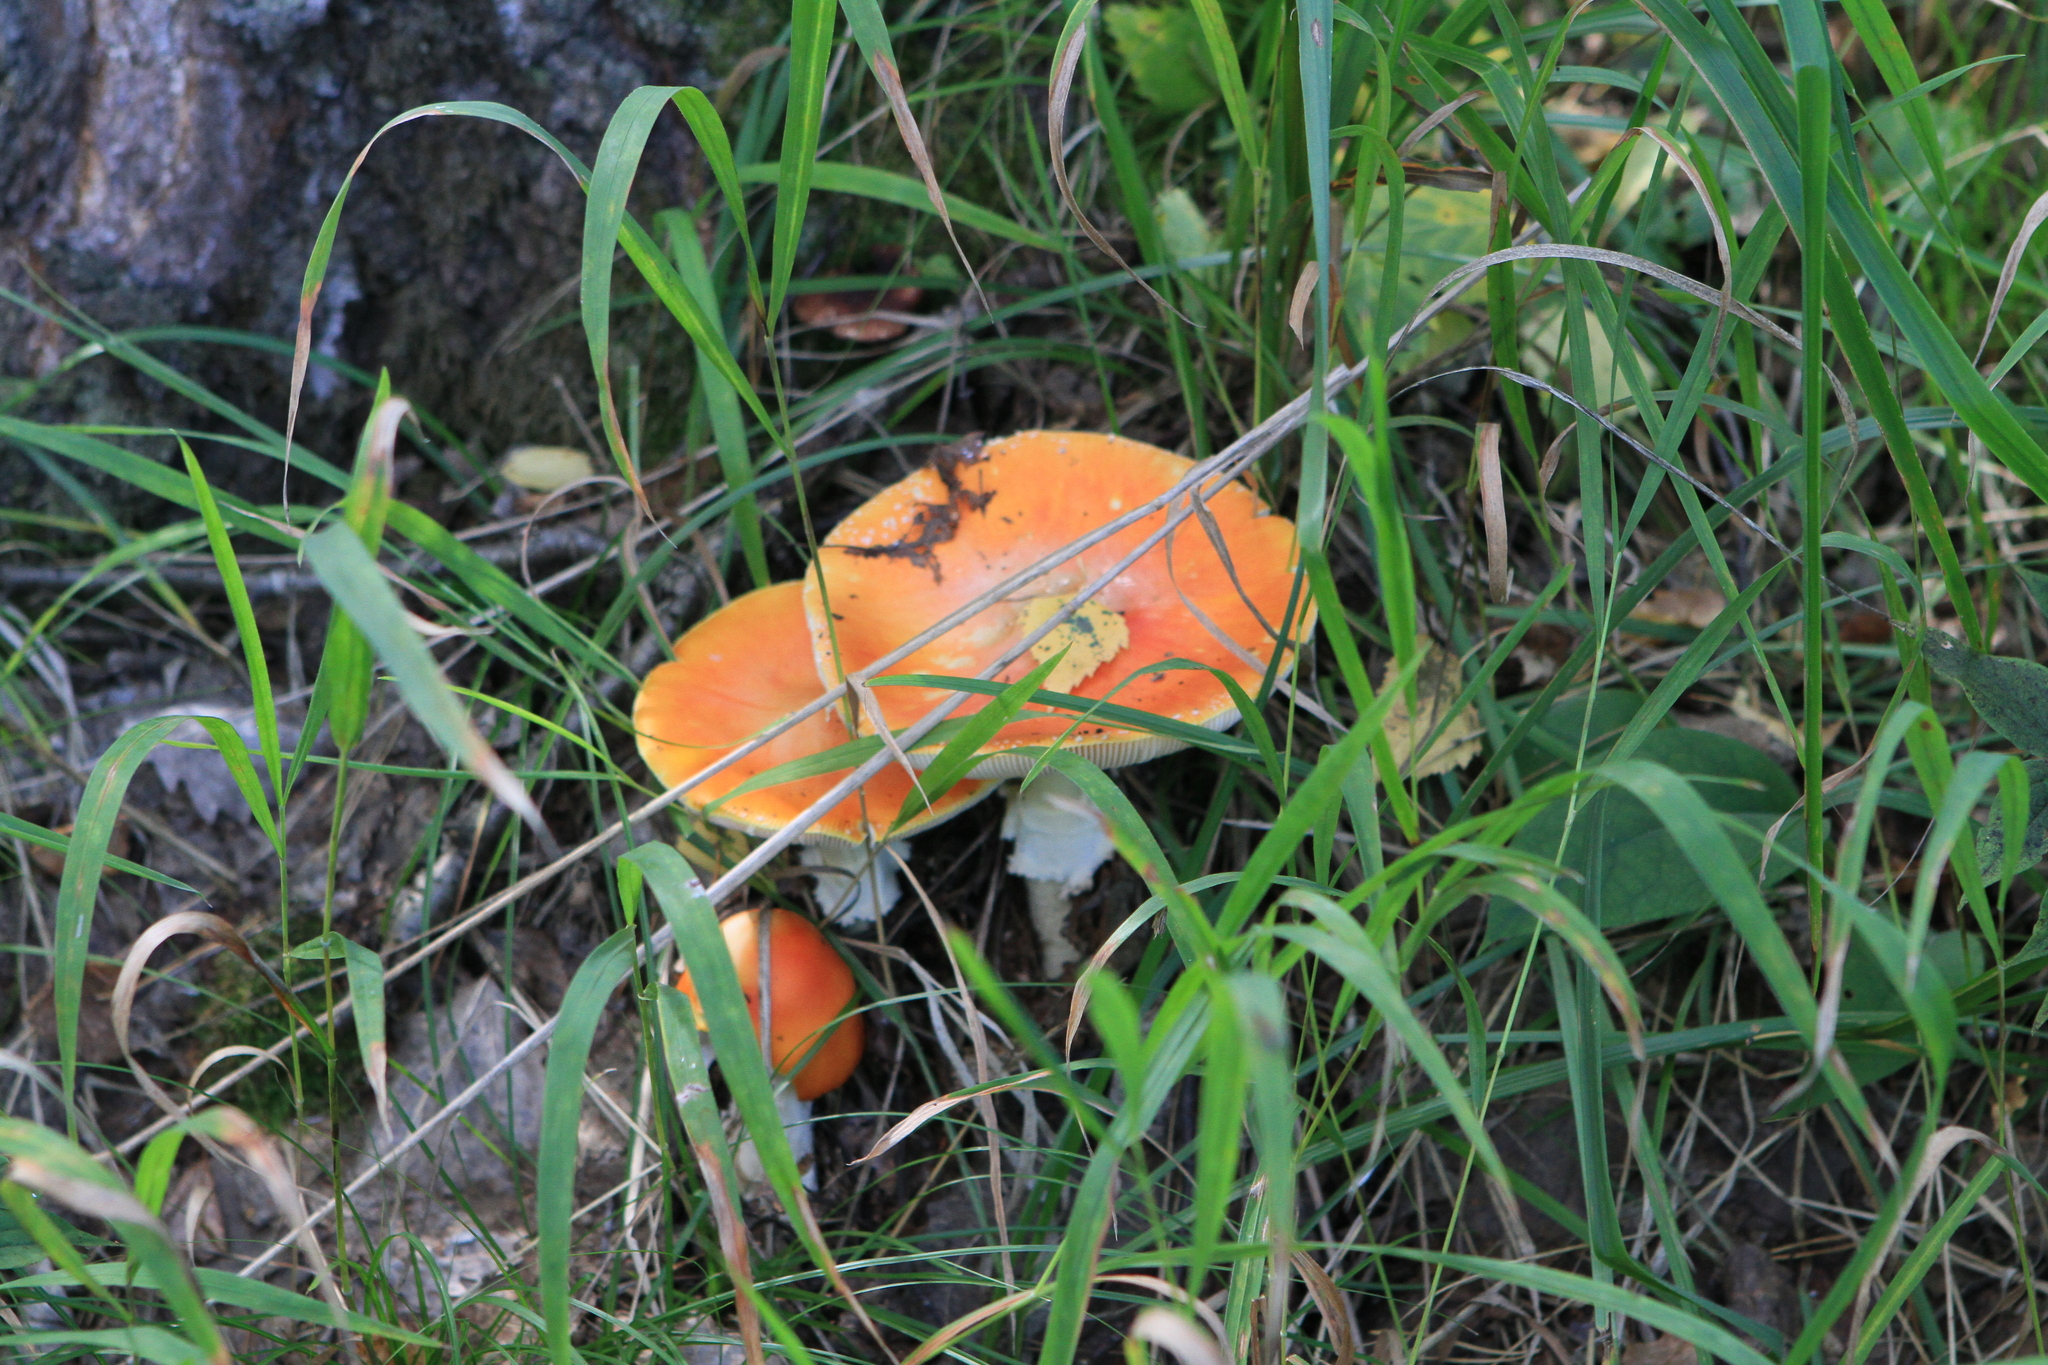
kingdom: Fungi
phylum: Basidiomycota
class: Agaricomycetes
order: Agaricales
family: Amanitaceae
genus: Amanita
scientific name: Amanita muscaria
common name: Fly agaric
